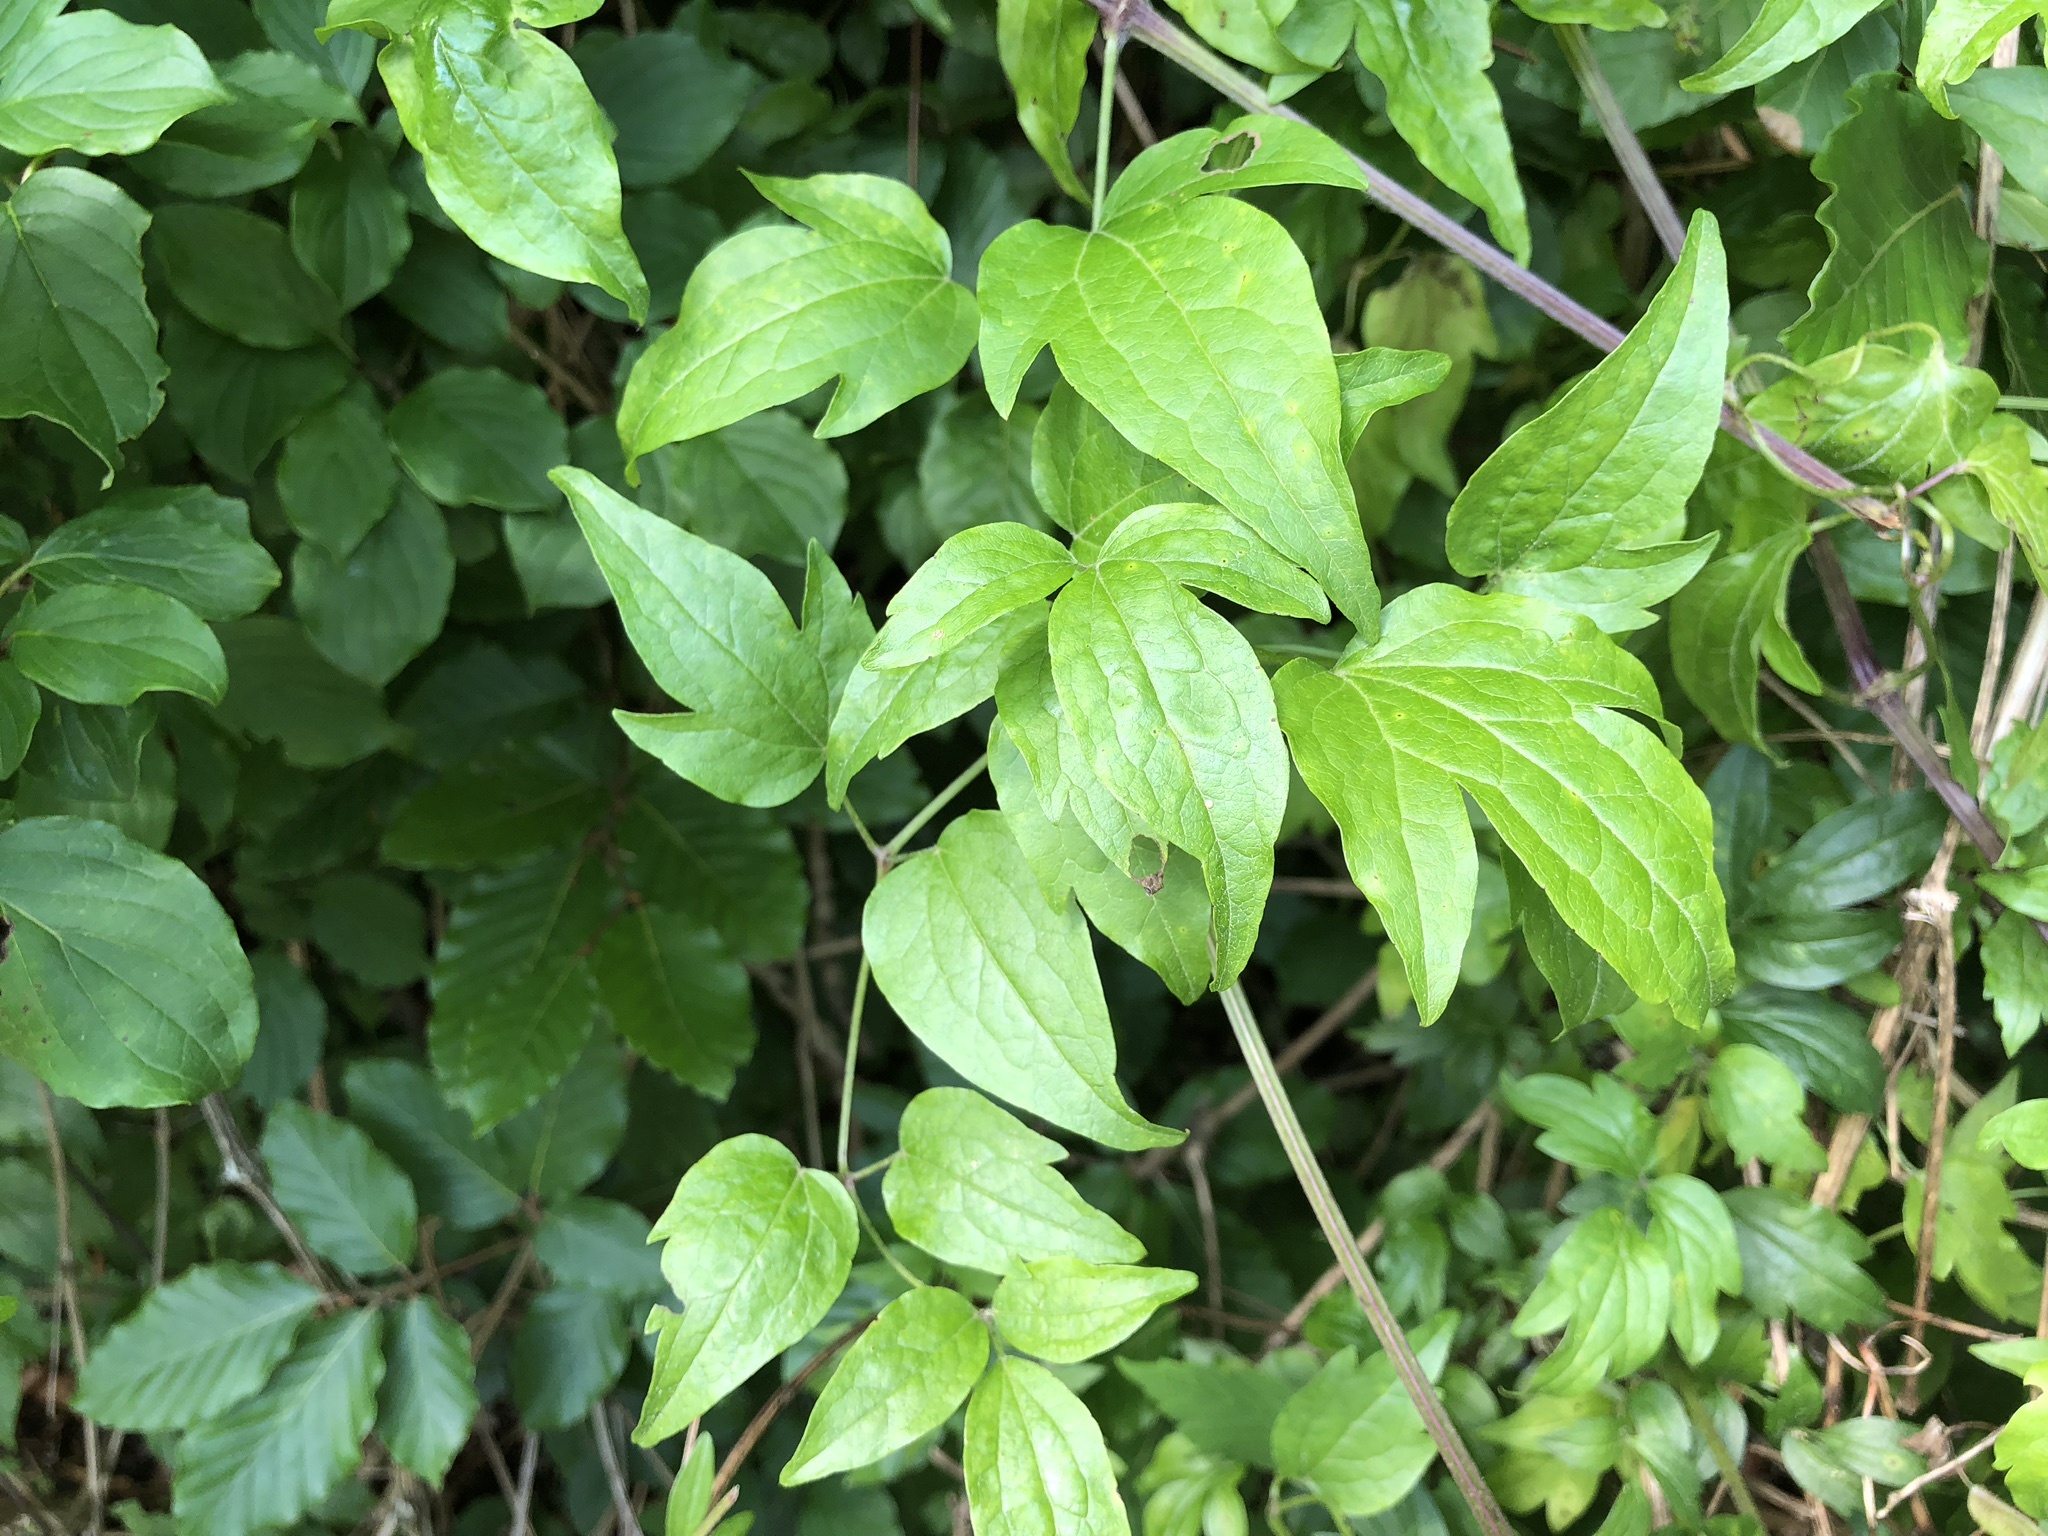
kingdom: Plantae
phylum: Tracheophyta
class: Magnoliopsida
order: Ranunculales
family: Ranunculaceae
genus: Clematis
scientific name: Clematis vitalba
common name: Evergreen clematis
